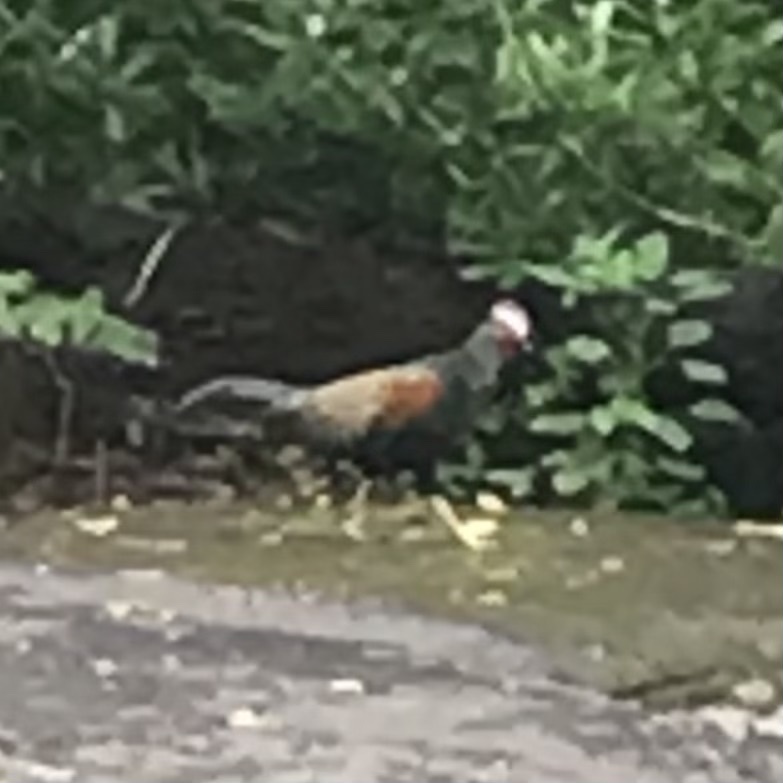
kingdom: Animalia
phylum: Chordata
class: Aves
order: Galliformes
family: Phasianidae
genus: Gallus
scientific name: Gallus varius
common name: Green junglefowl
